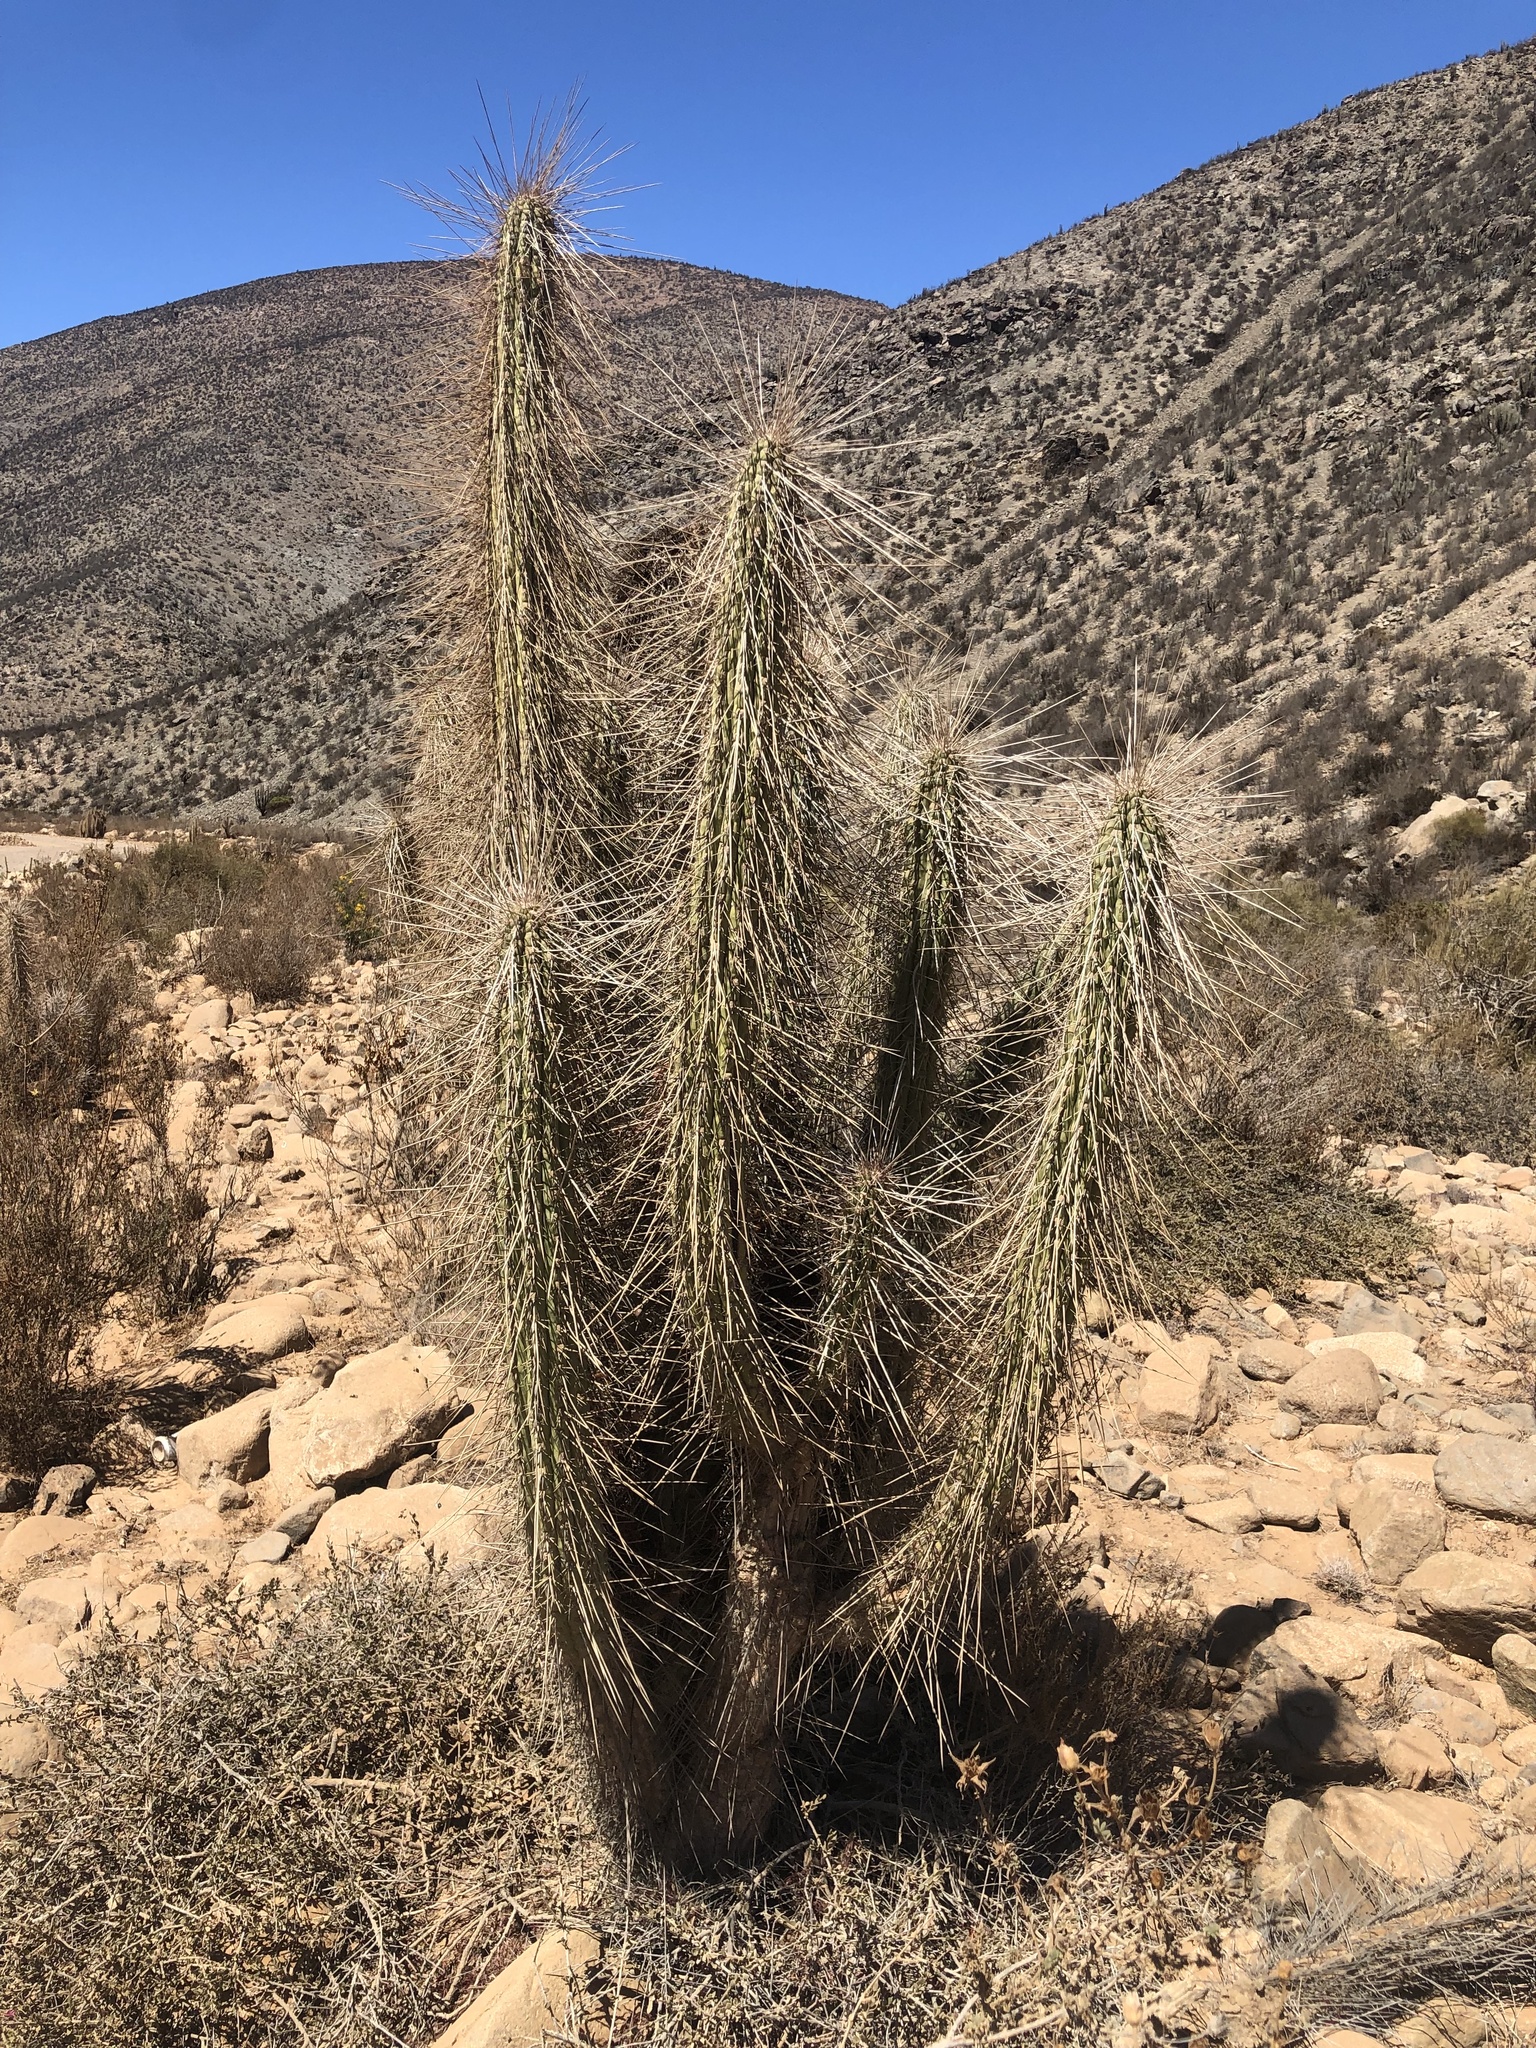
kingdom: Plantae
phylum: Tracheophyta
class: Magnoliopsida
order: Caryophyllales
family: Cactaceae
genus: Eulychnia
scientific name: Eulychnia acida
